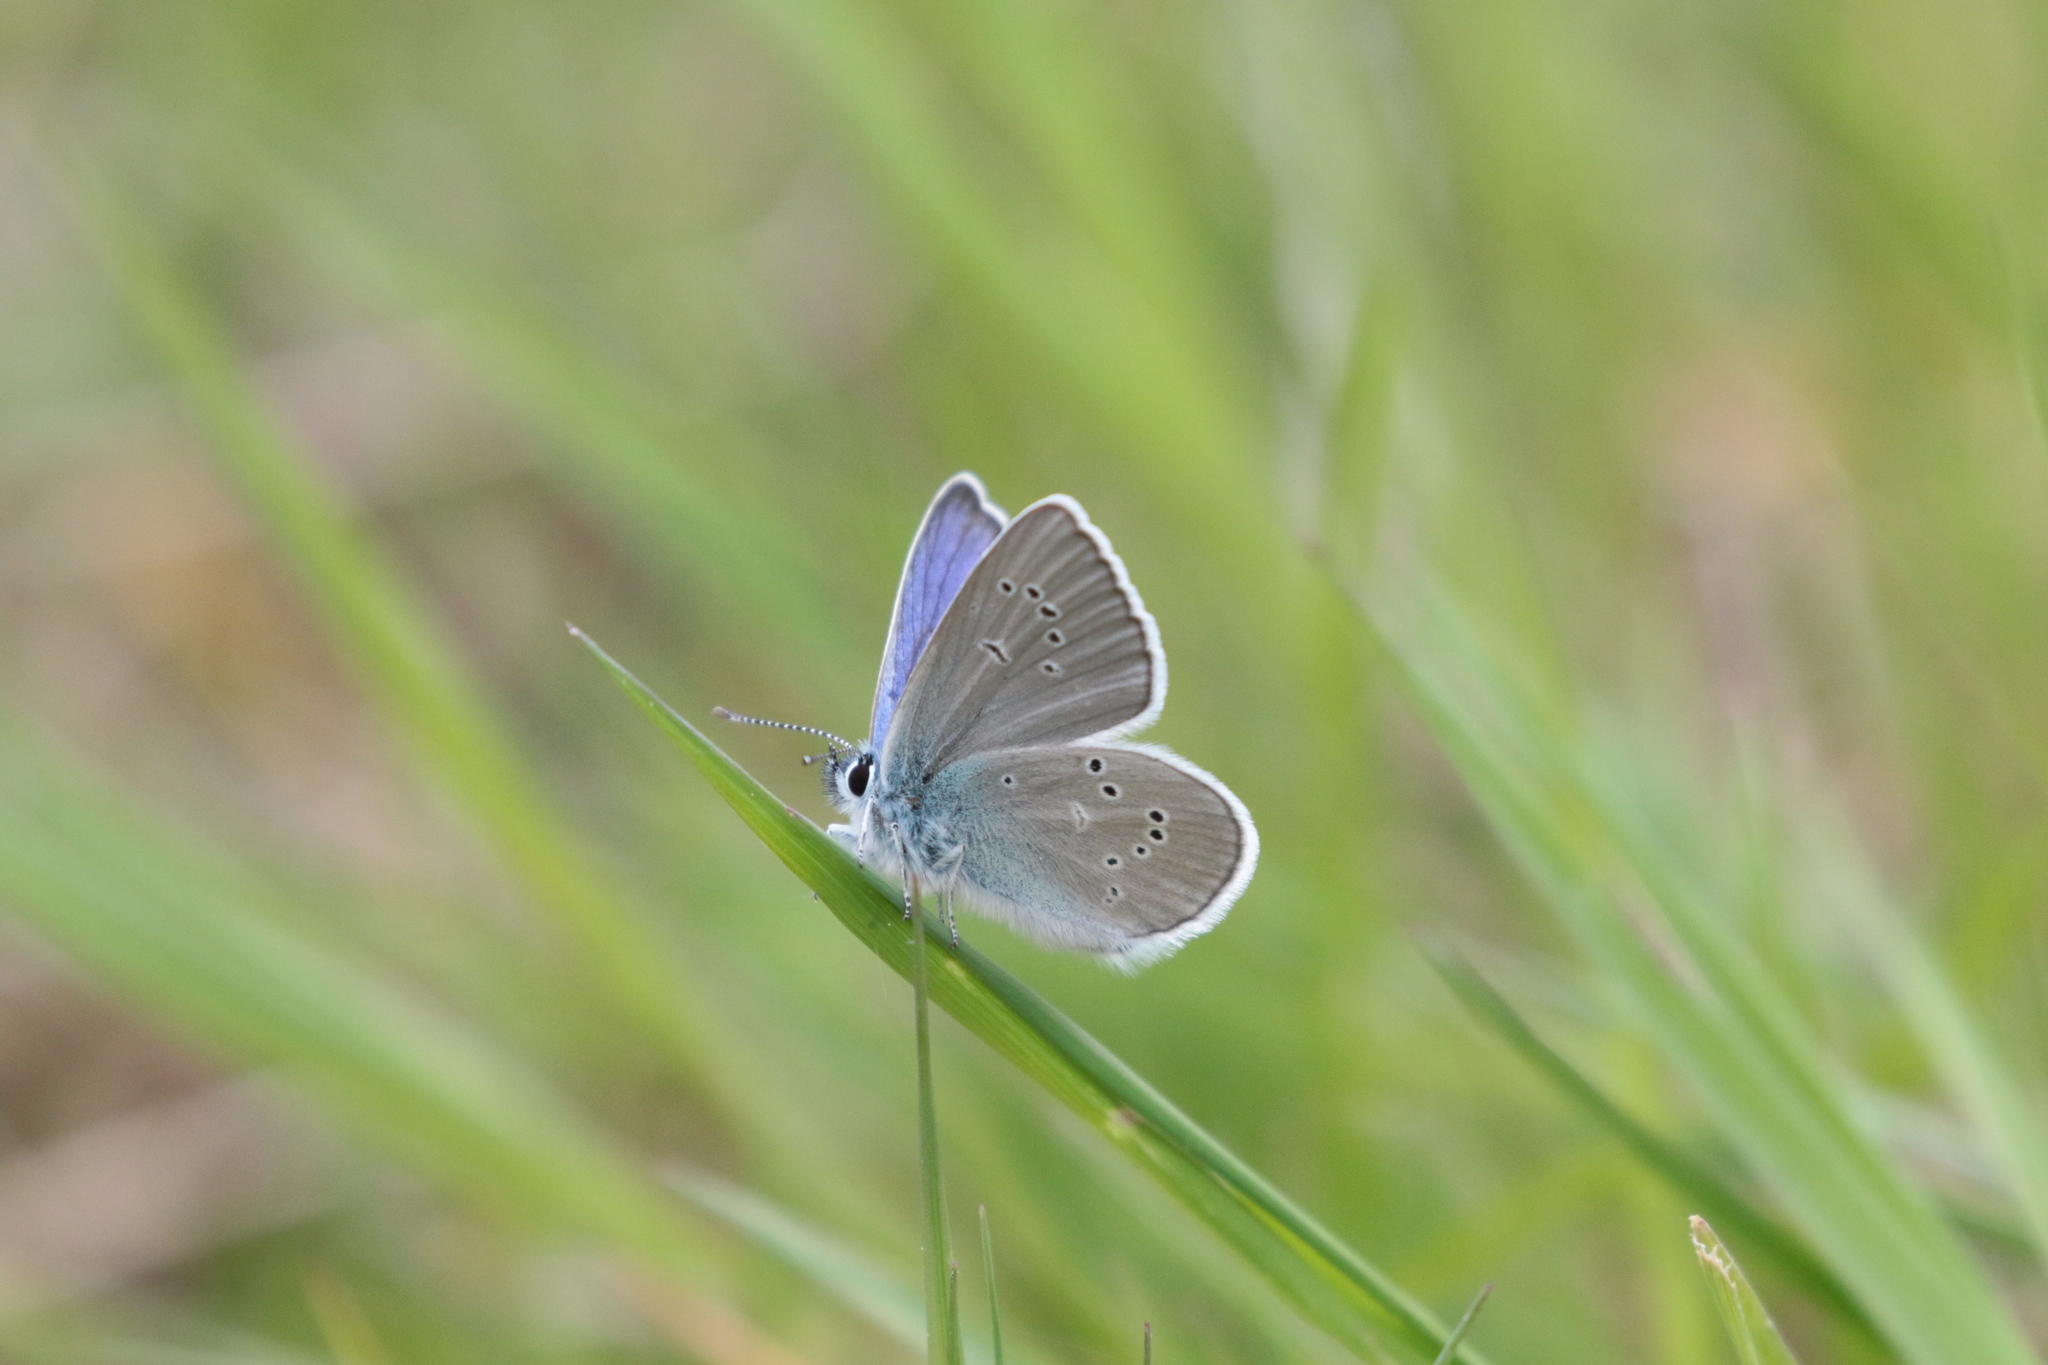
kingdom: Animalia
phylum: Arthropoda
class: Insecta
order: Lepidoptera
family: Lycaenidae
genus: Cyaniris
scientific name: Cyaniris semiargus
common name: Mazarine blue
